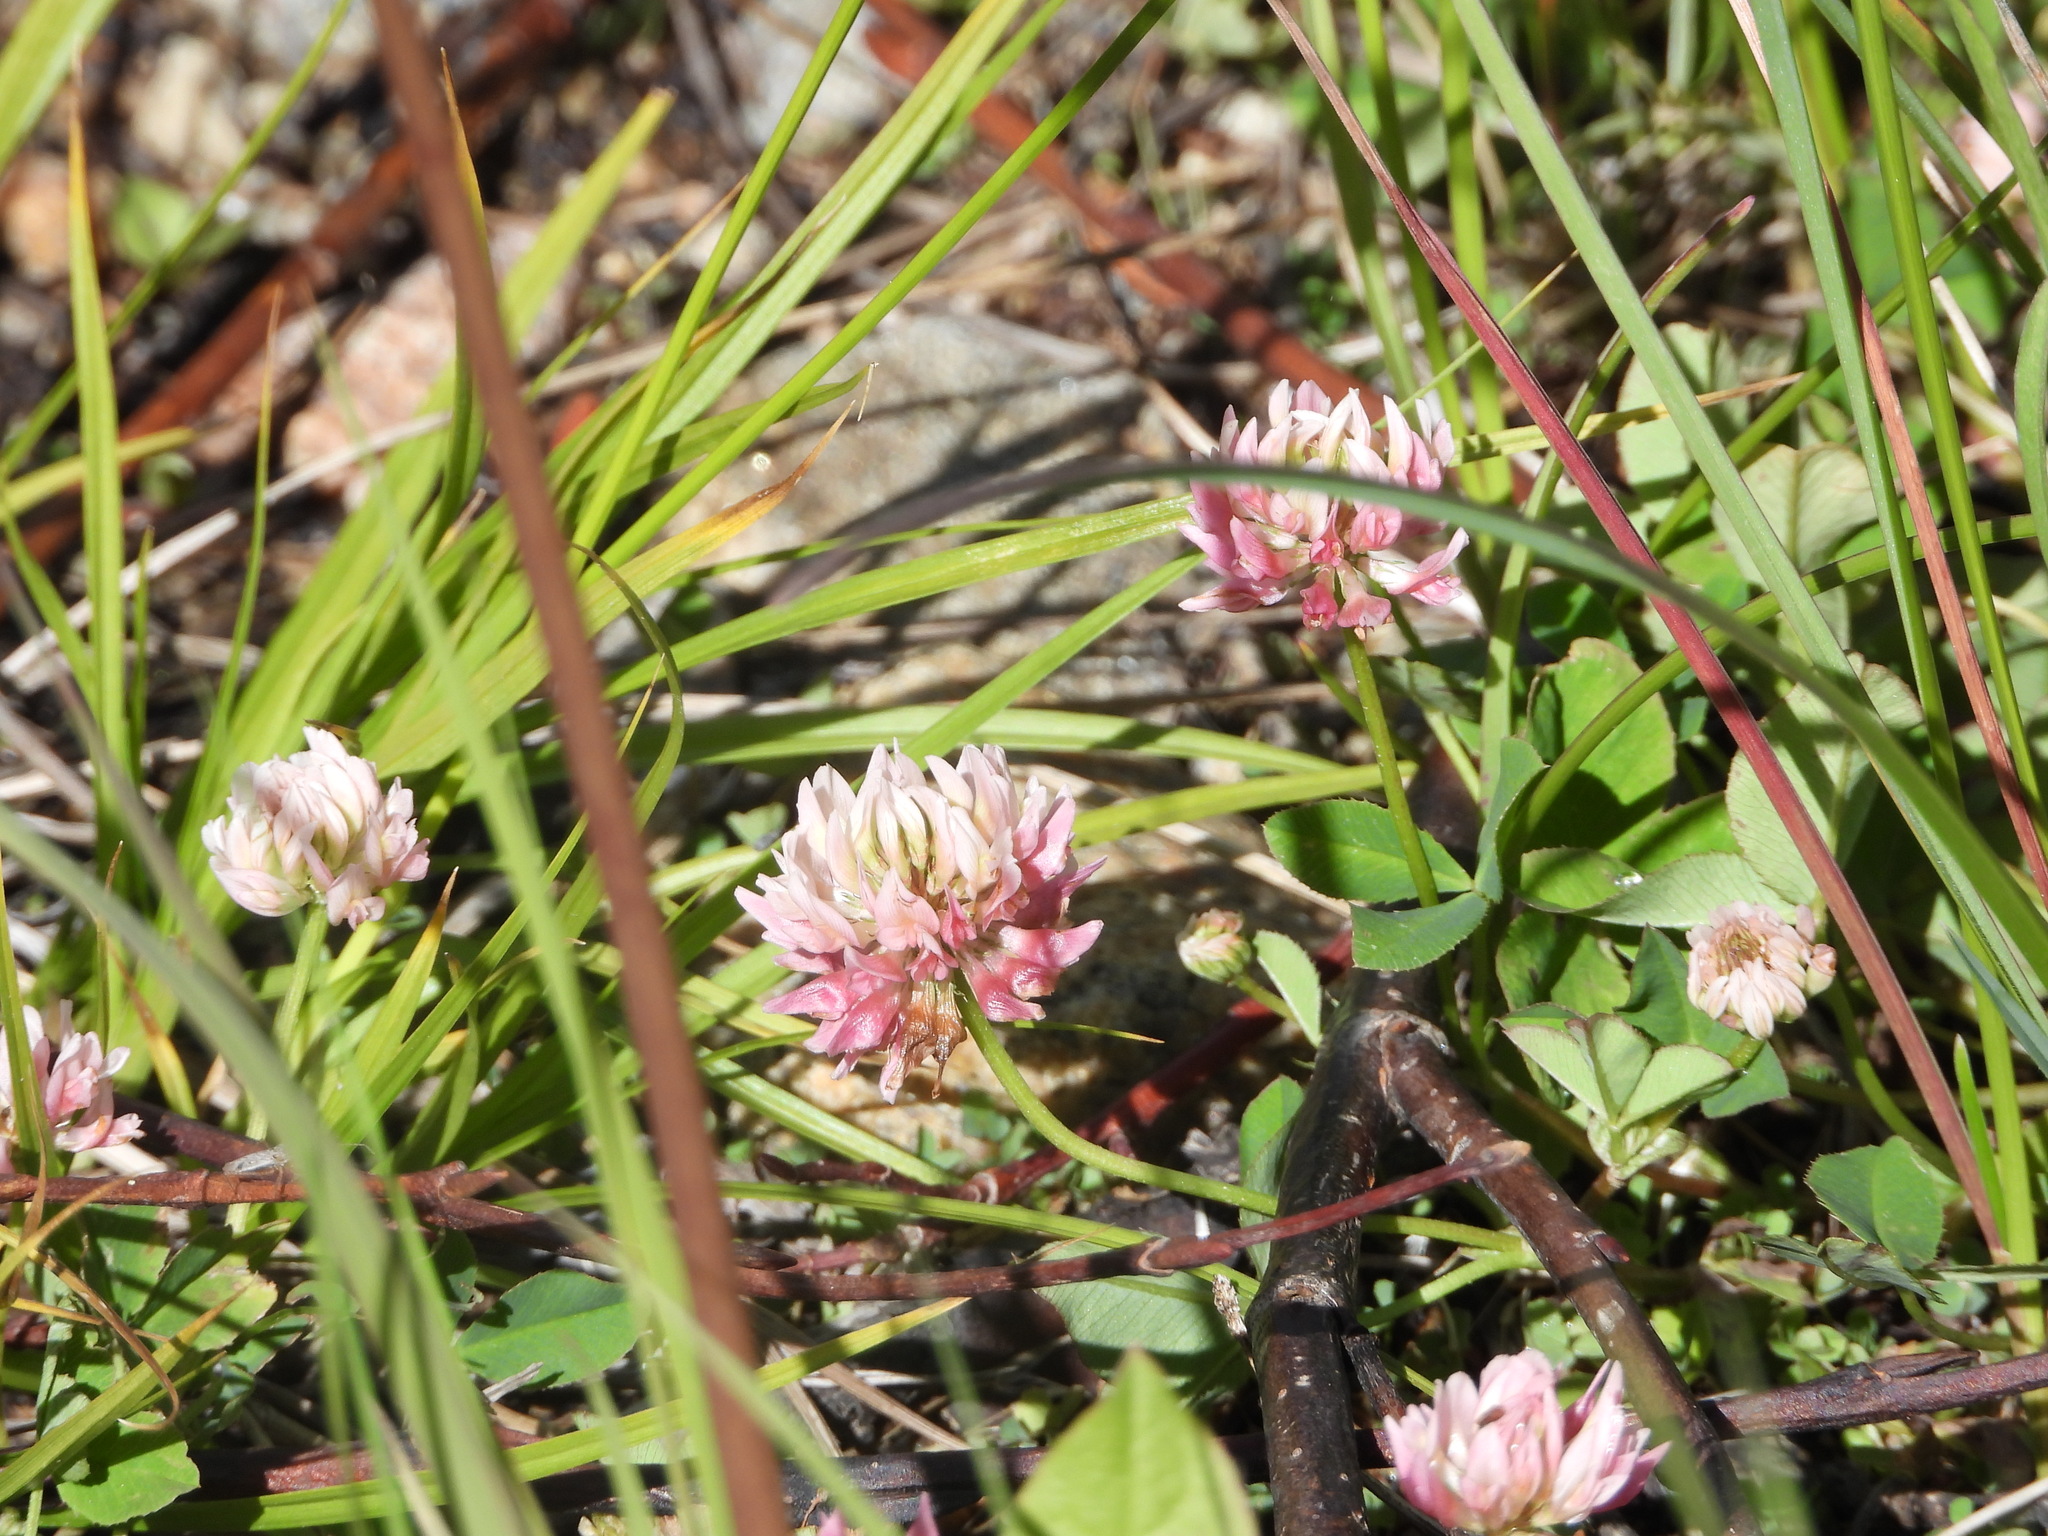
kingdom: Plantae
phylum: Tracheophyta
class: Magnoliopsida
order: Fabales
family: Fabaceae
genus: Trifolium
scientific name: Trifolium hybridum
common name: Alsike clover
